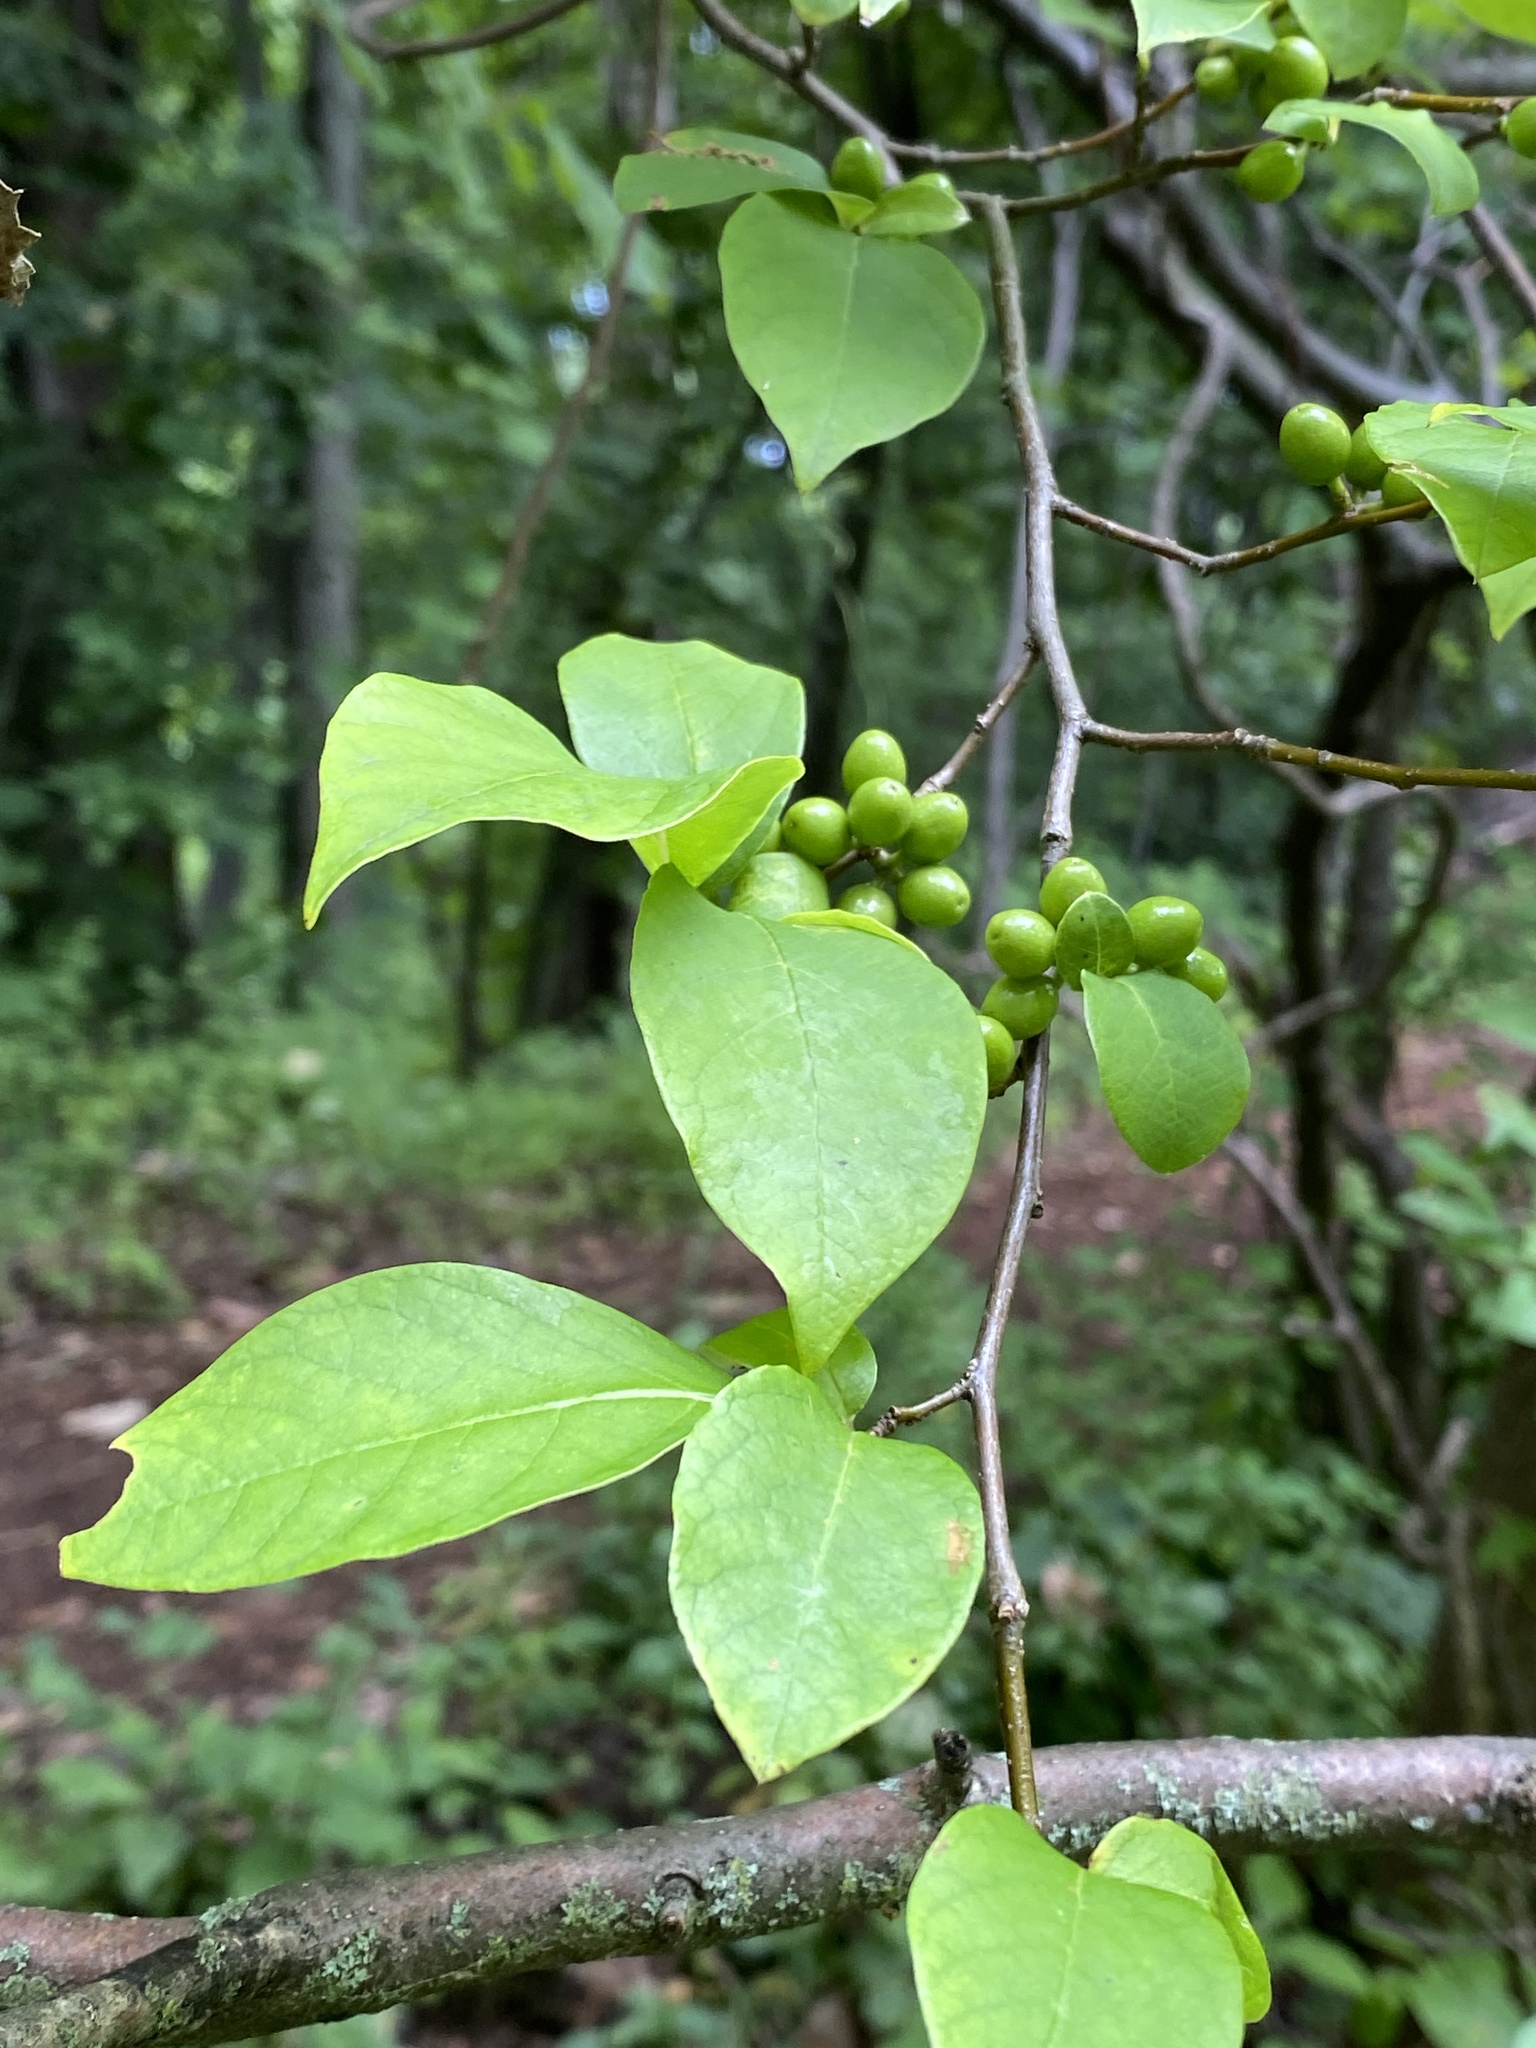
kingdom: Plantae
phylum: Tracheophyta
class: Magnoliopsida
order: Laurales
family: Lauraceae
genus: Lindera
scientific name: Lindera benzoin
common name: Spicebush
